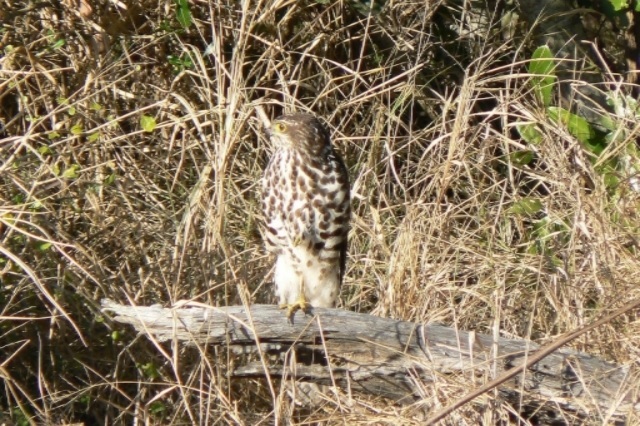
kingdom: Animalia
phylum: Chordata
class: Aves
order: Accipitriformes
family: Accipitridae
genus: Accipiter
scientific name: Accipiter tachiro
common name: African goshawk
